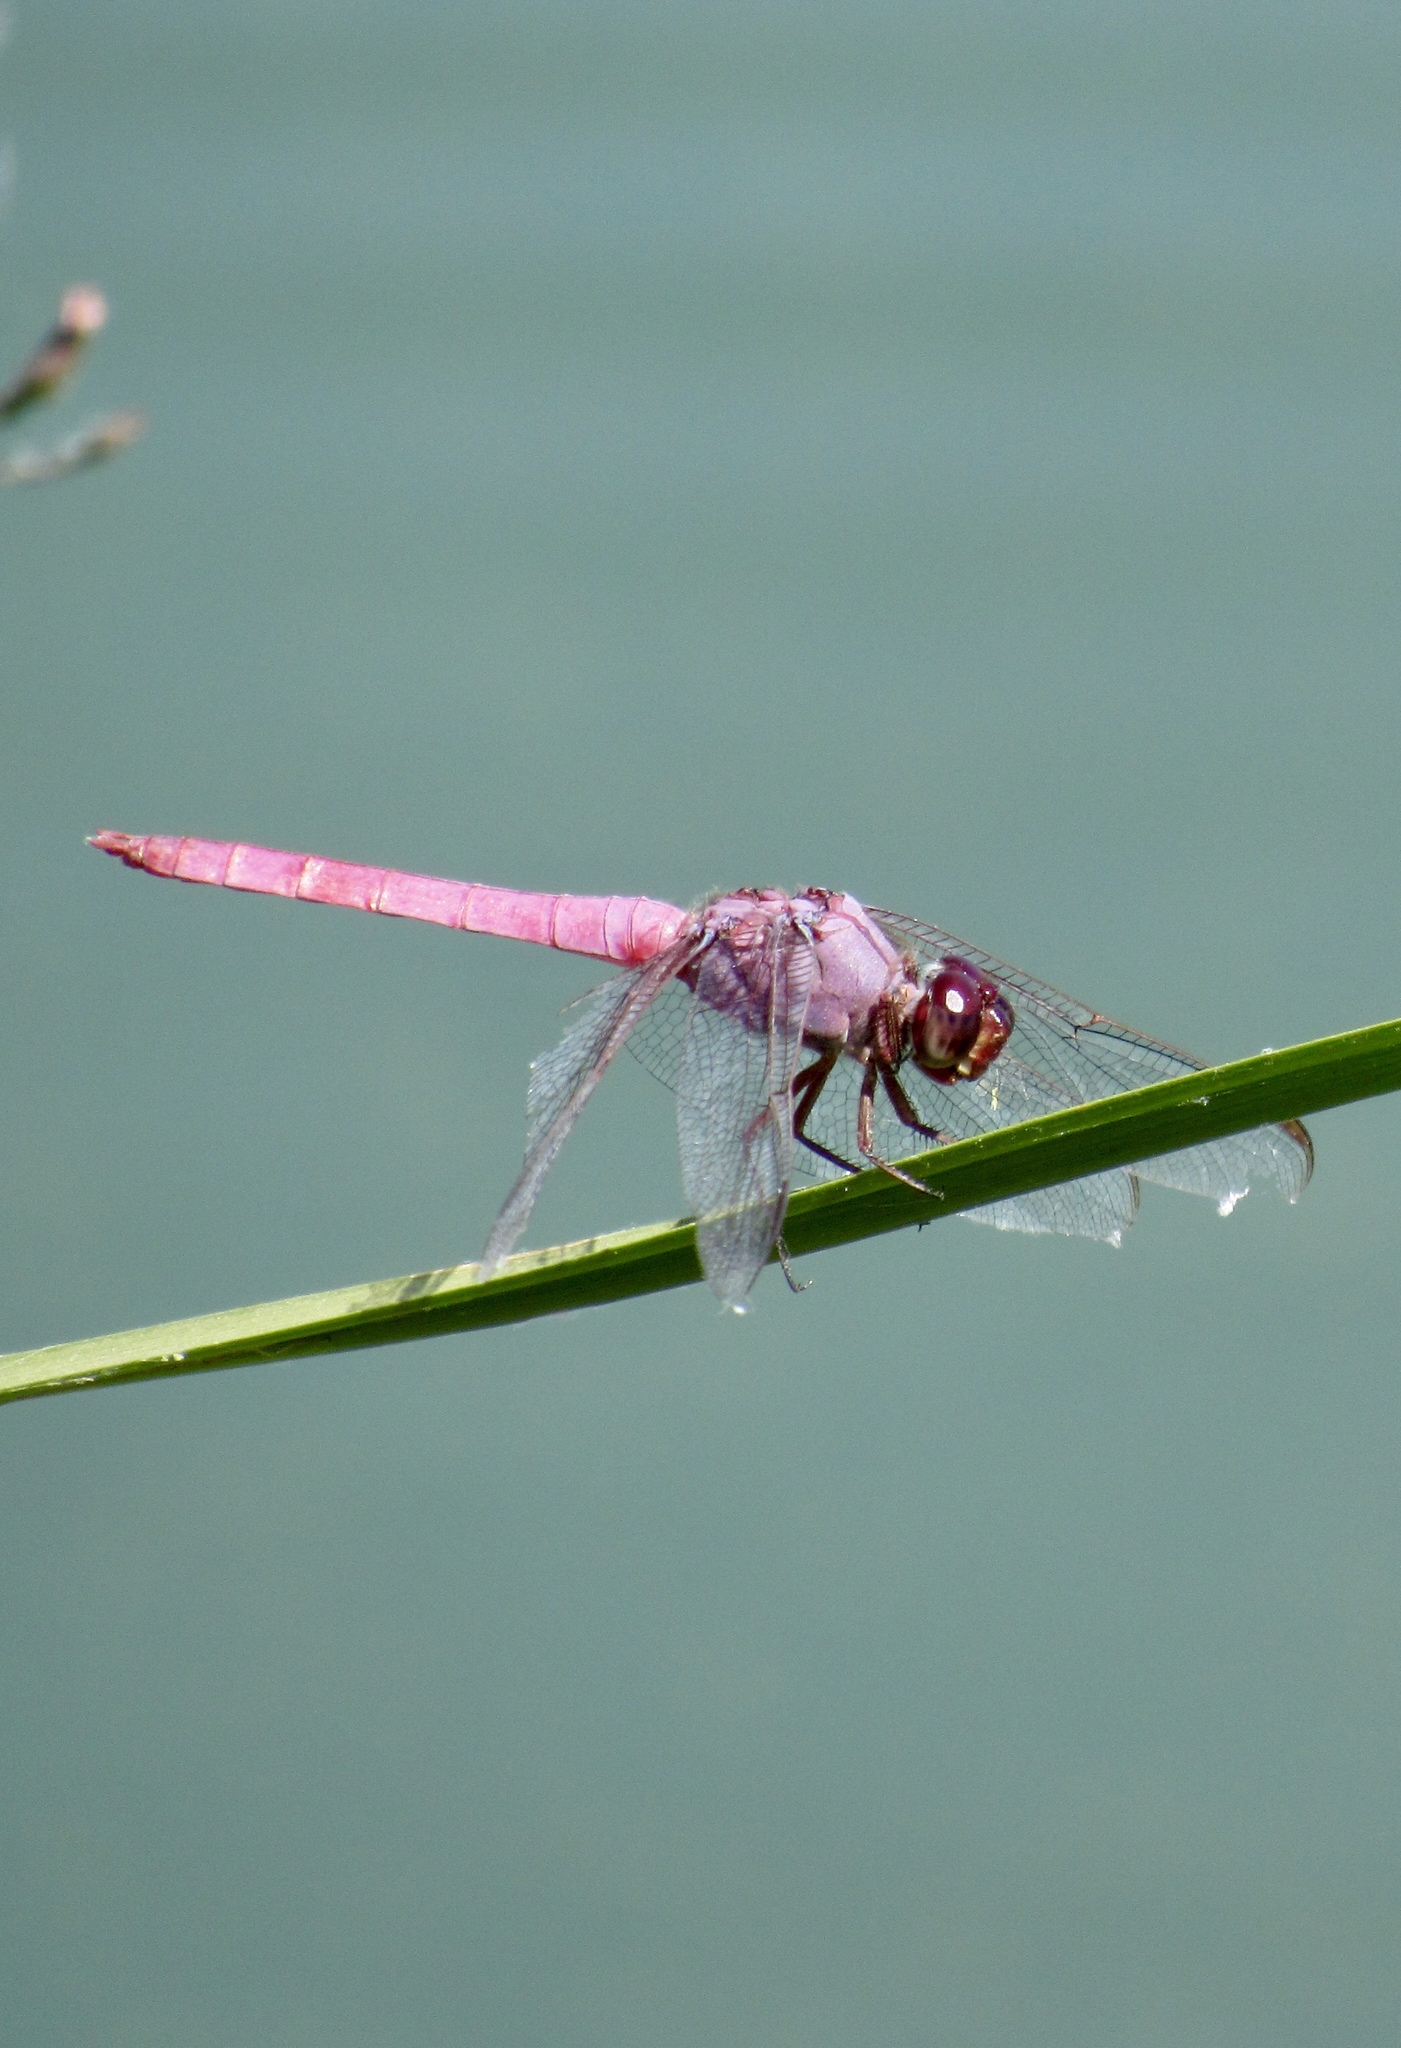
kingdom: Animalia
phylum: Arthropoda
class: Insecta
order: Odonata
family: Libellulidae
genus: Orthemis
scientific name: Orthemis ferruginea
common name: Roseate skimmer
